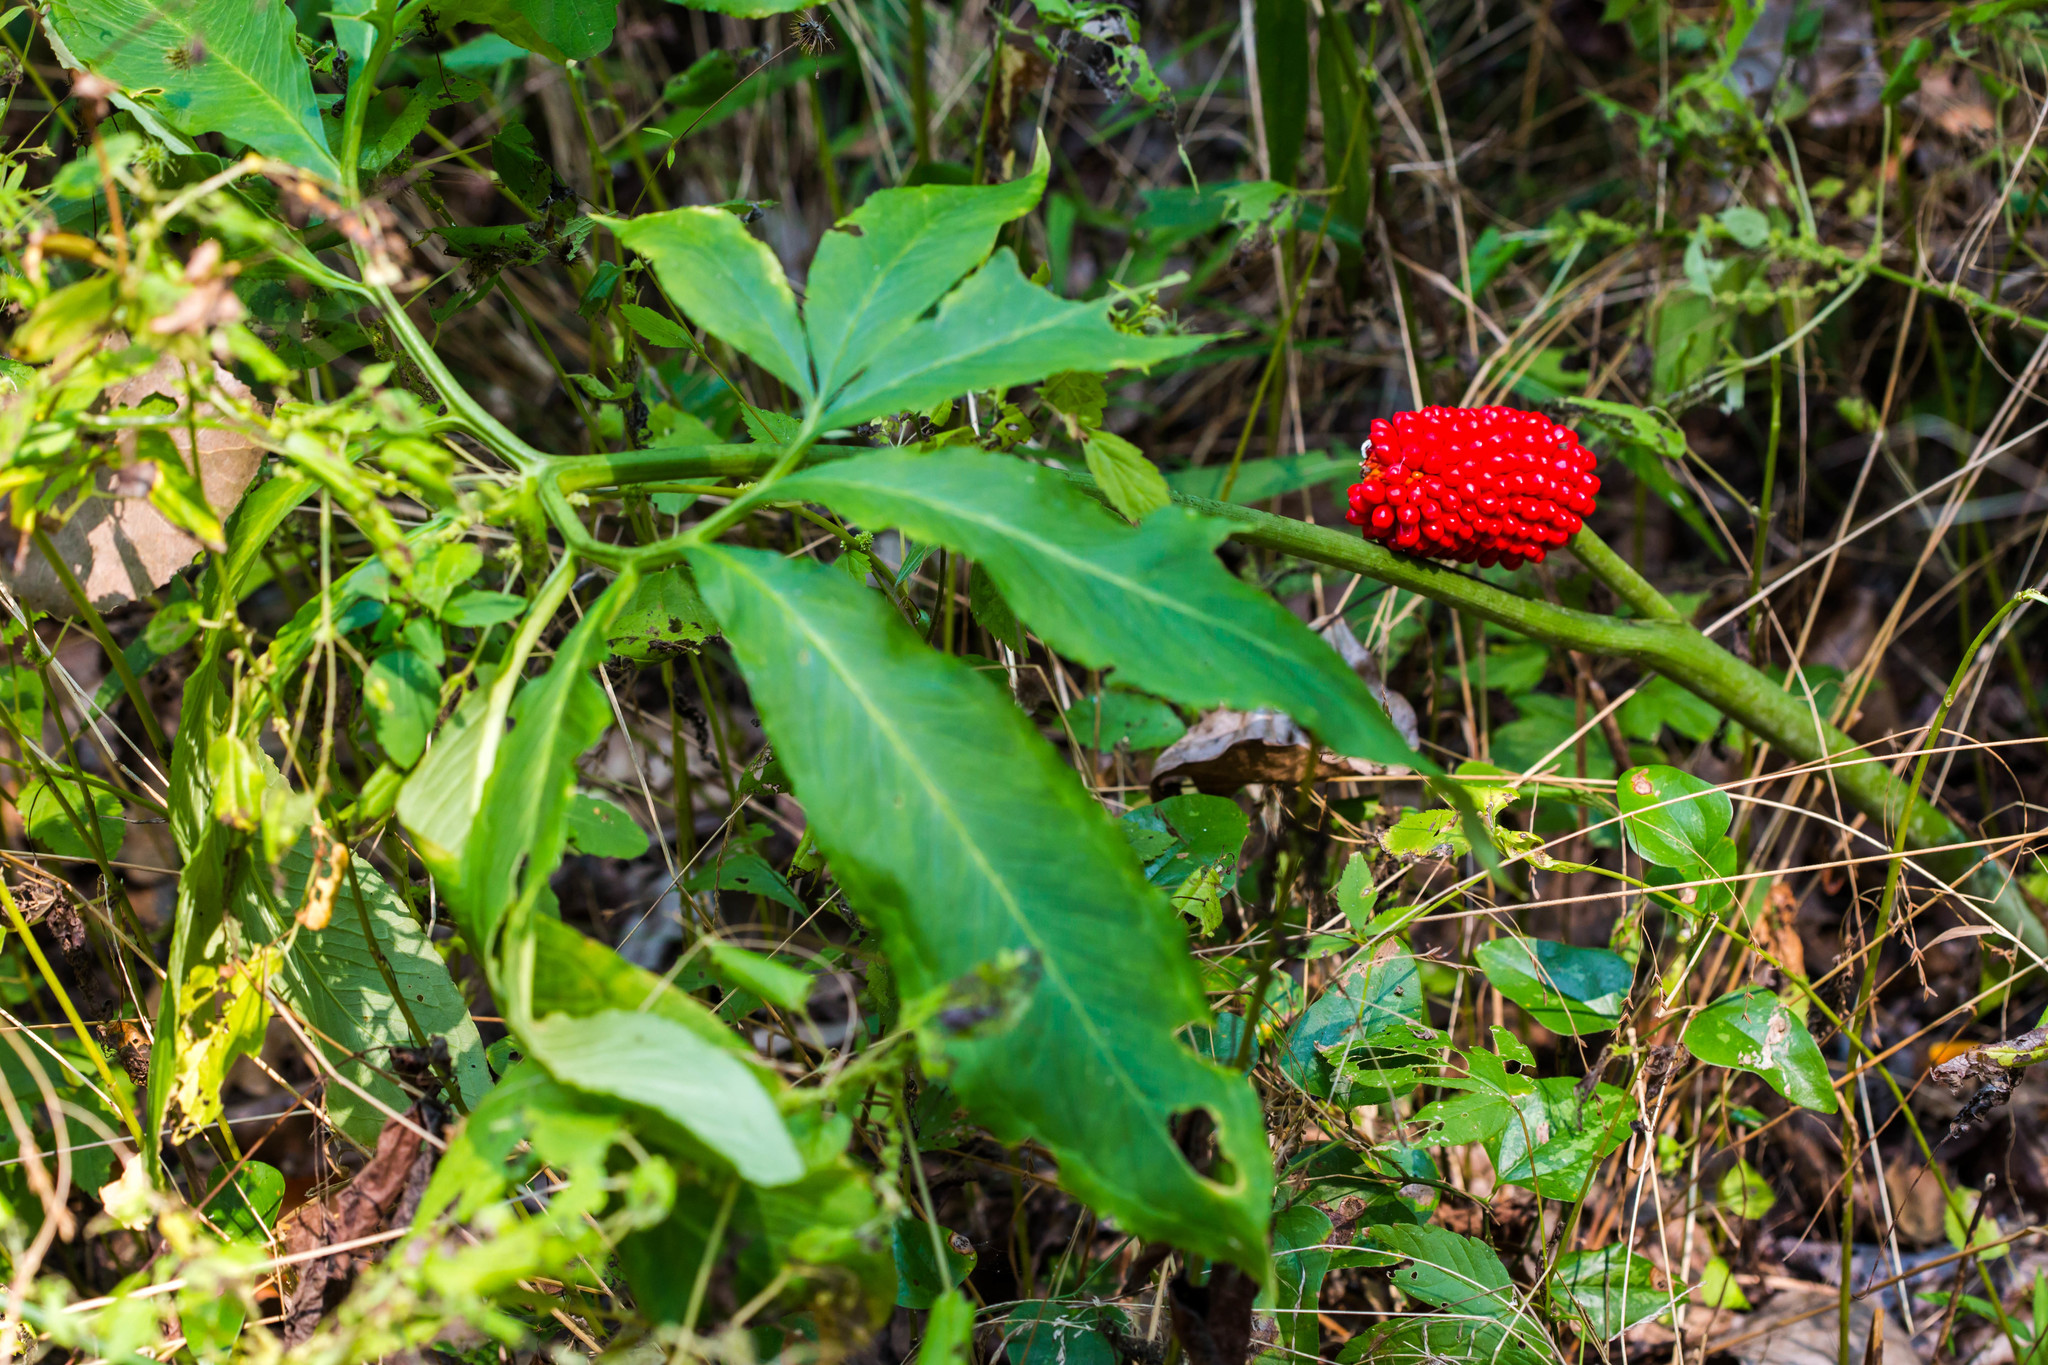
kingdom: Plantae
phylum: Tracheophyta
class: Liliopsida
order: Alismatales
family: Araceae
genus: Arisaema
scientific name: Arisaema dracontium
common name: Dragon-arum
